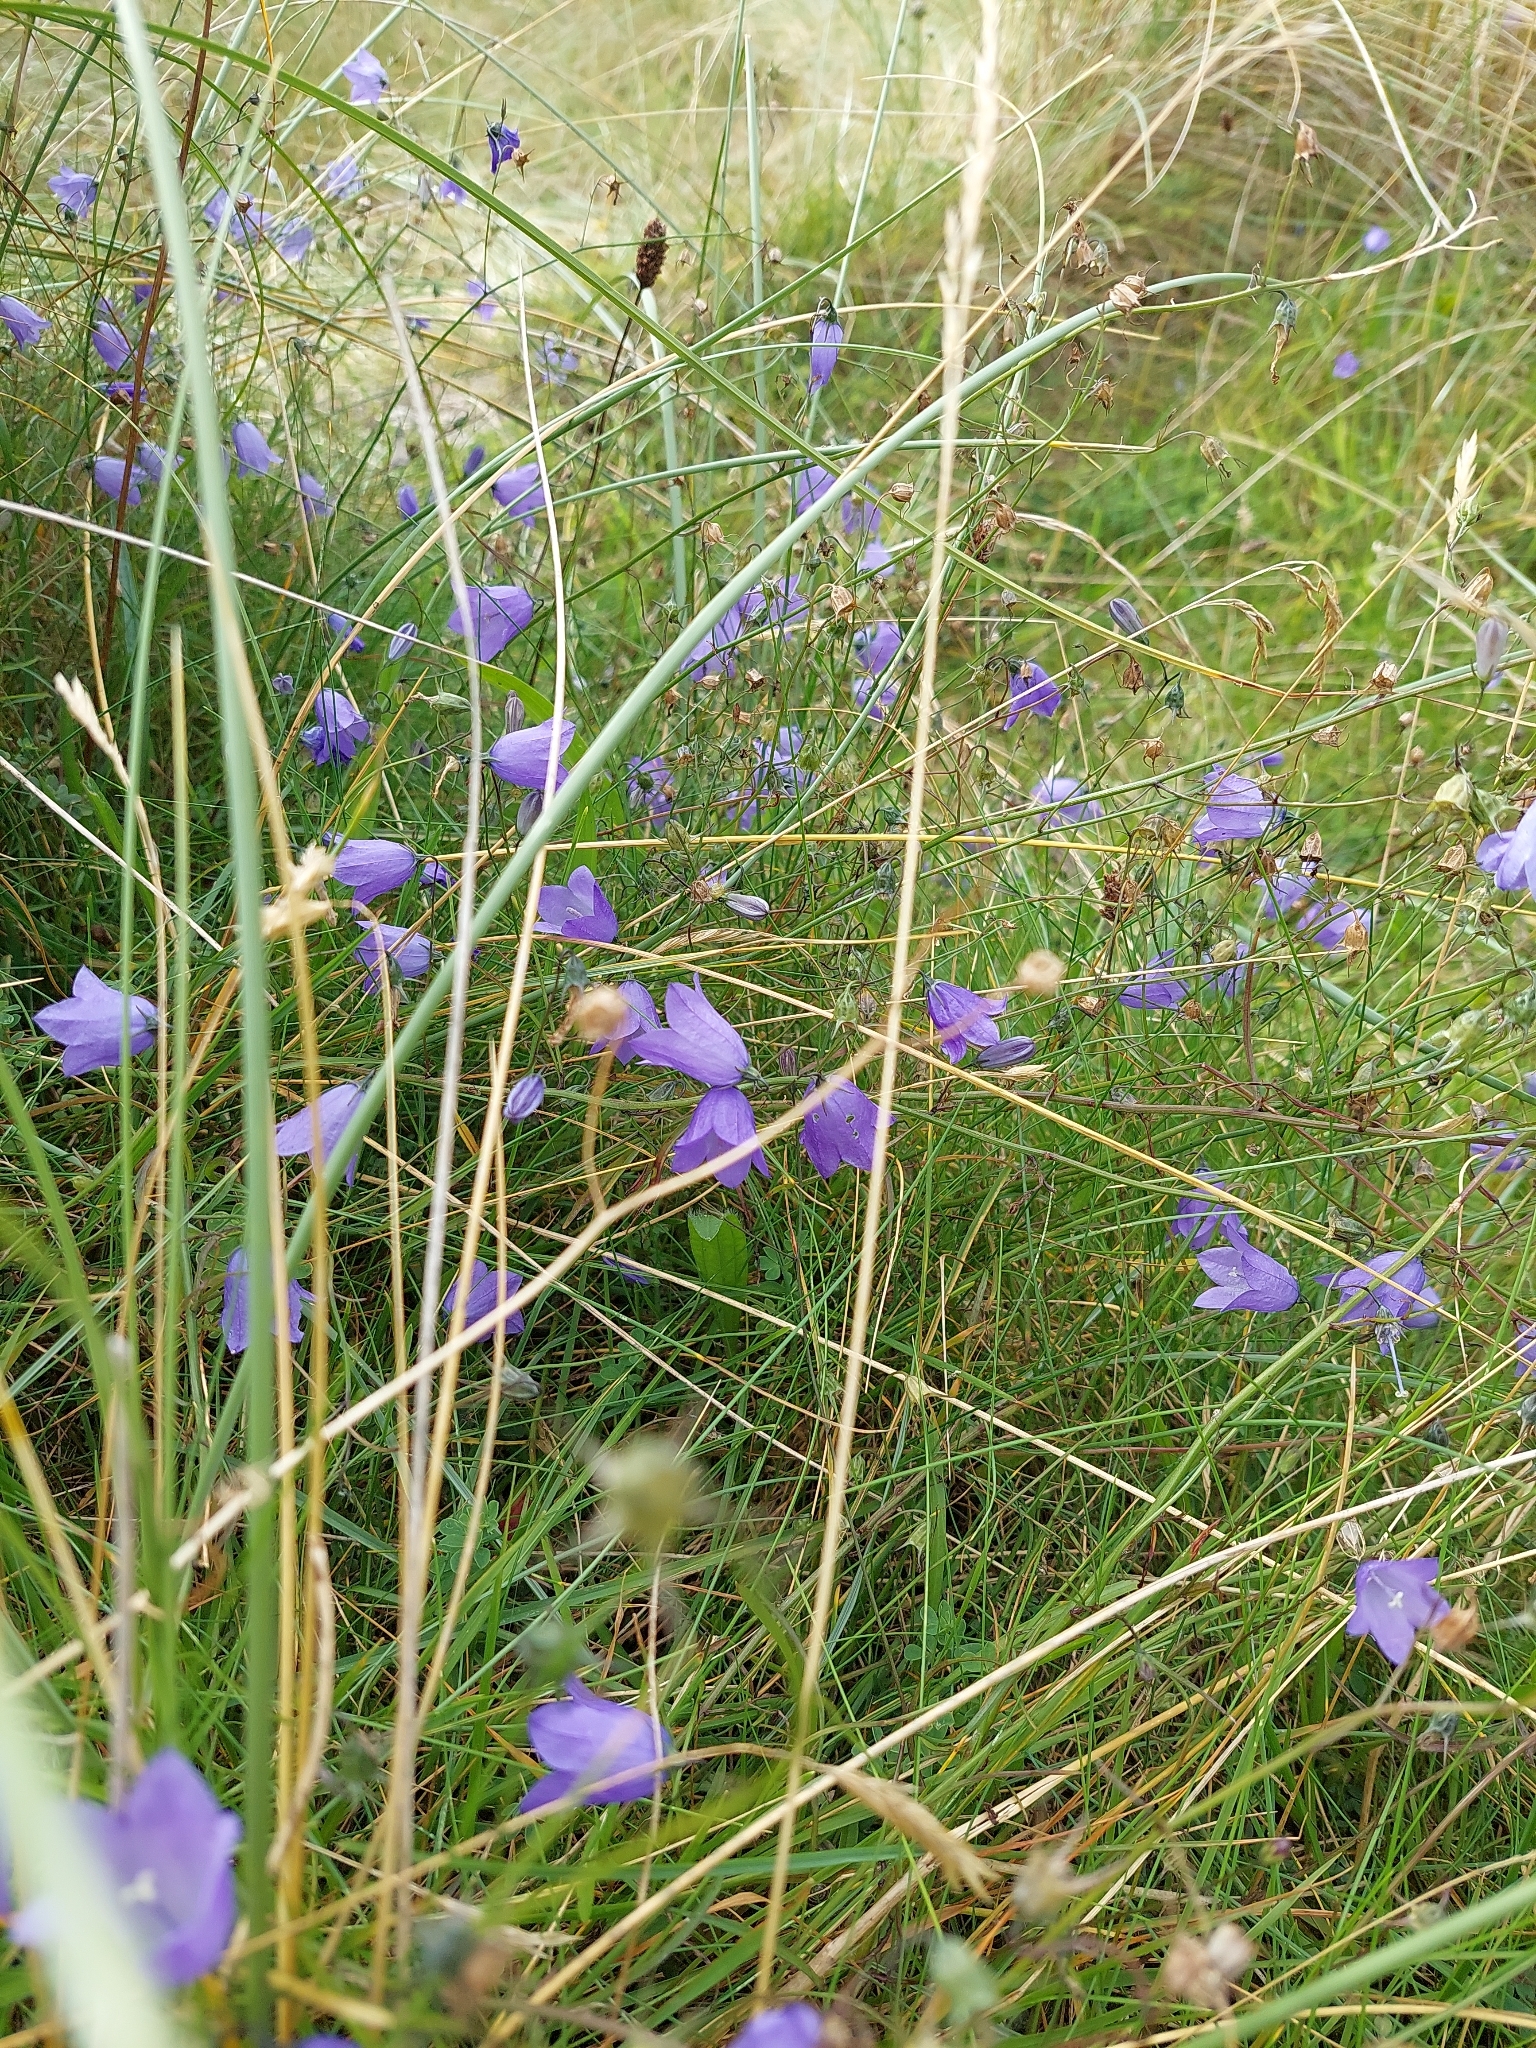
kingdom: Plantae
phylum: Tracheophyta
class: Magnoliopsida
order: Asterales
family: Campanulaceae
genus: Campanula
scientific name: Campanula rotundifolia
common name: Harebell
